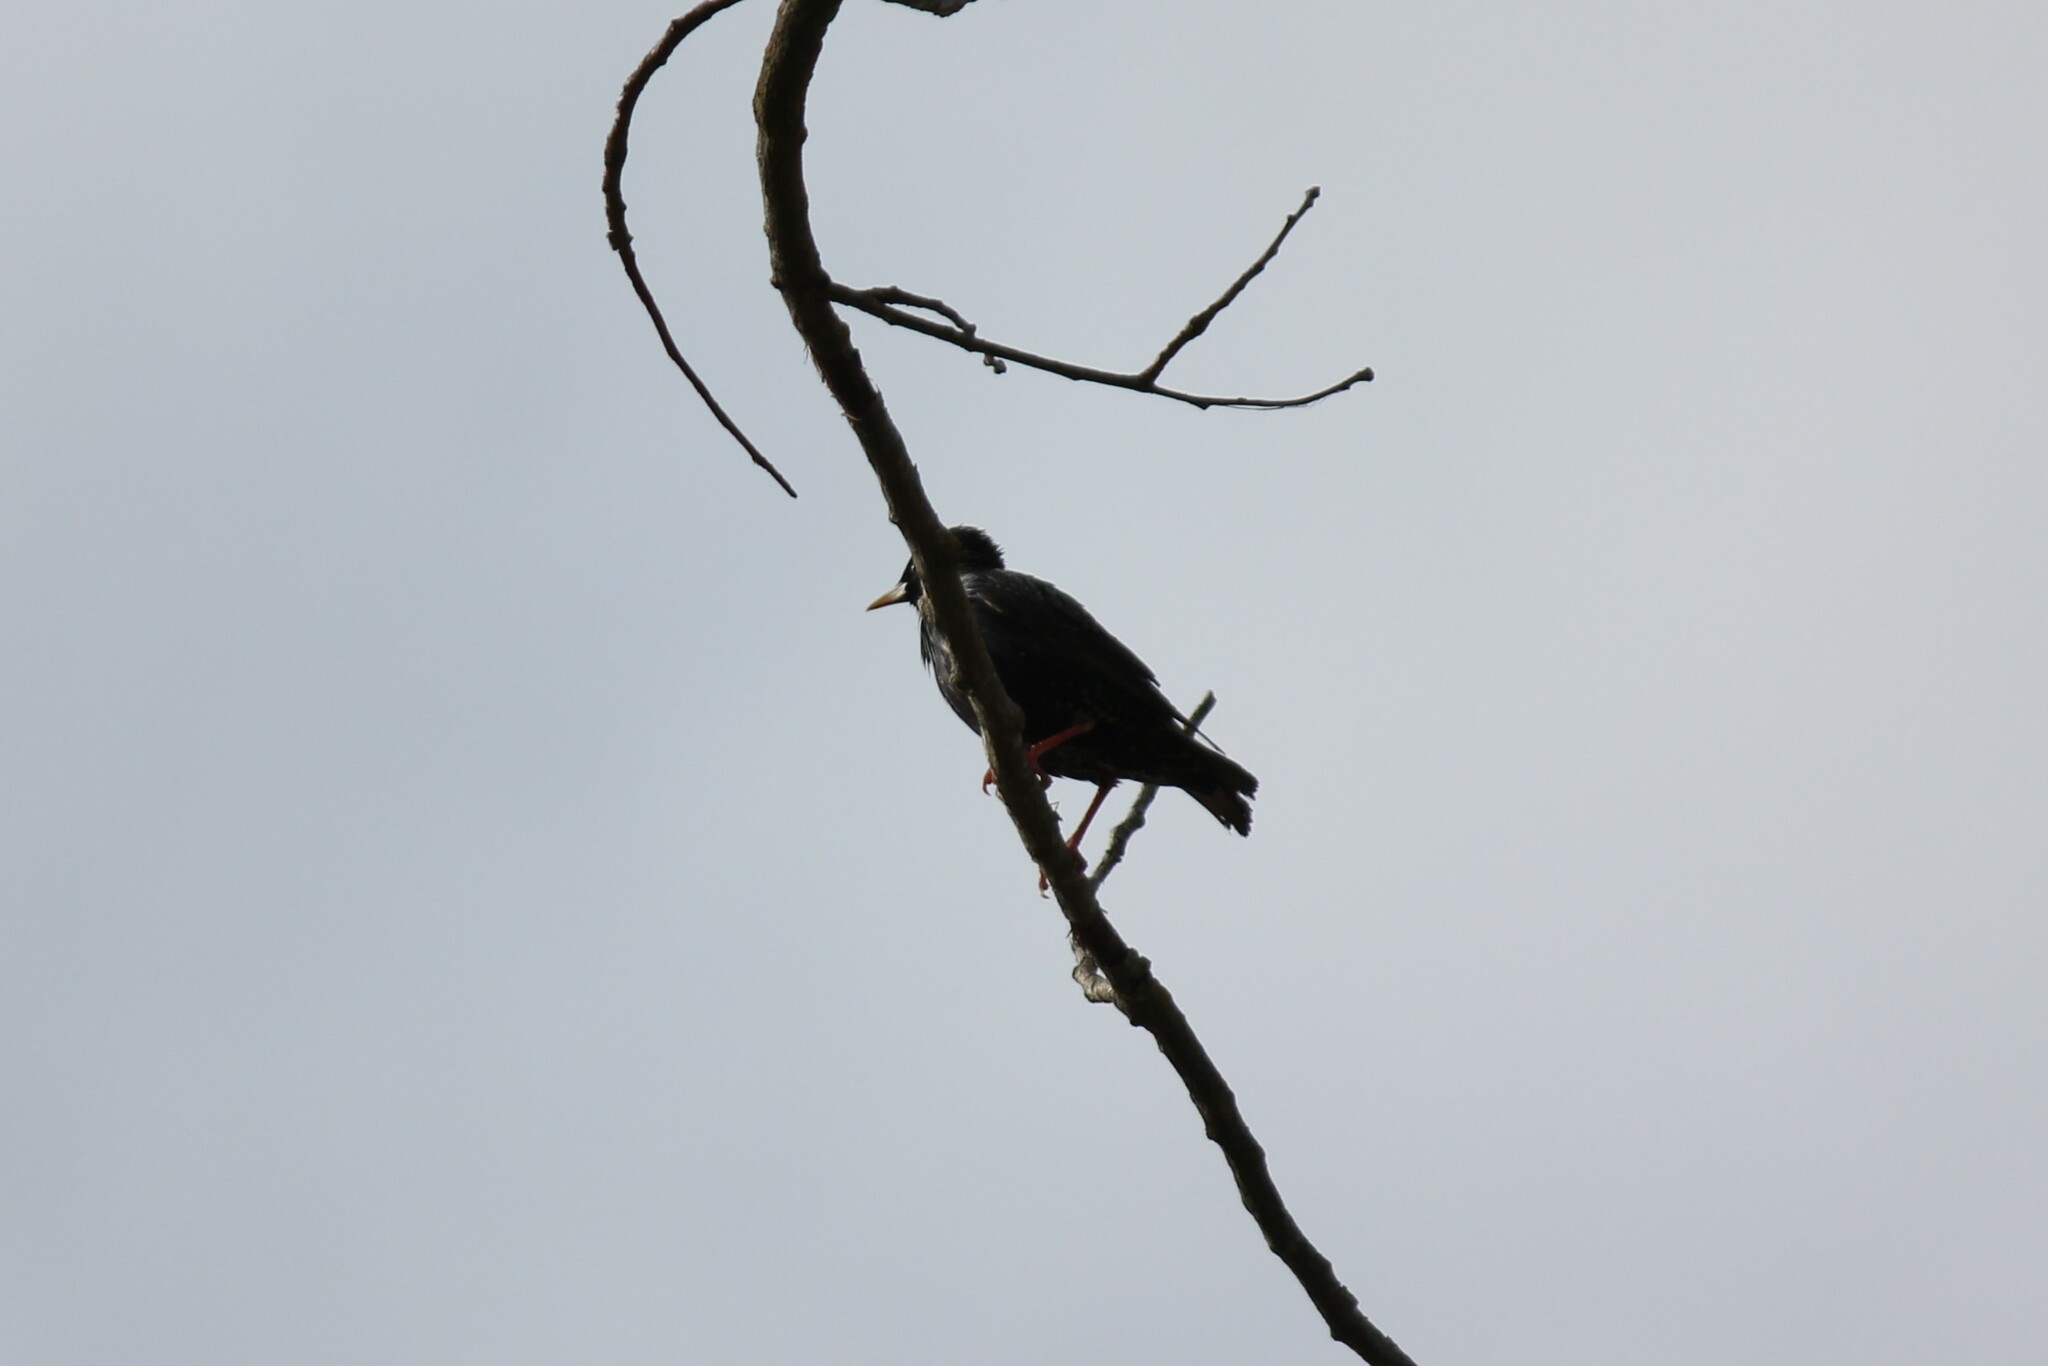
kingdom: Animalia
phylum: Chordata
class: Aves
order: Passeriformes
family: Sturnidae
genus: Sturnus
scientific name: Sturnus vulgaris
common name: Common starling
